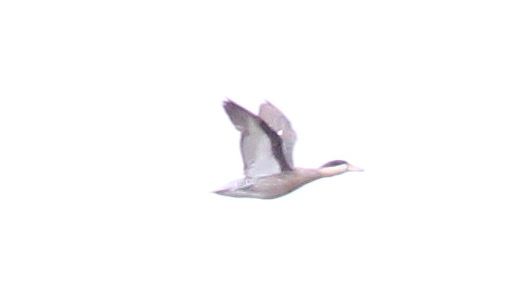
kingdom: Animalia
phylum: Chordata
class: Aves
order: Anseriformes
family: Anatidae
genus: Amazonetta
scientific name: Amazonetta brasiliensis
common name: Brazilian teal
